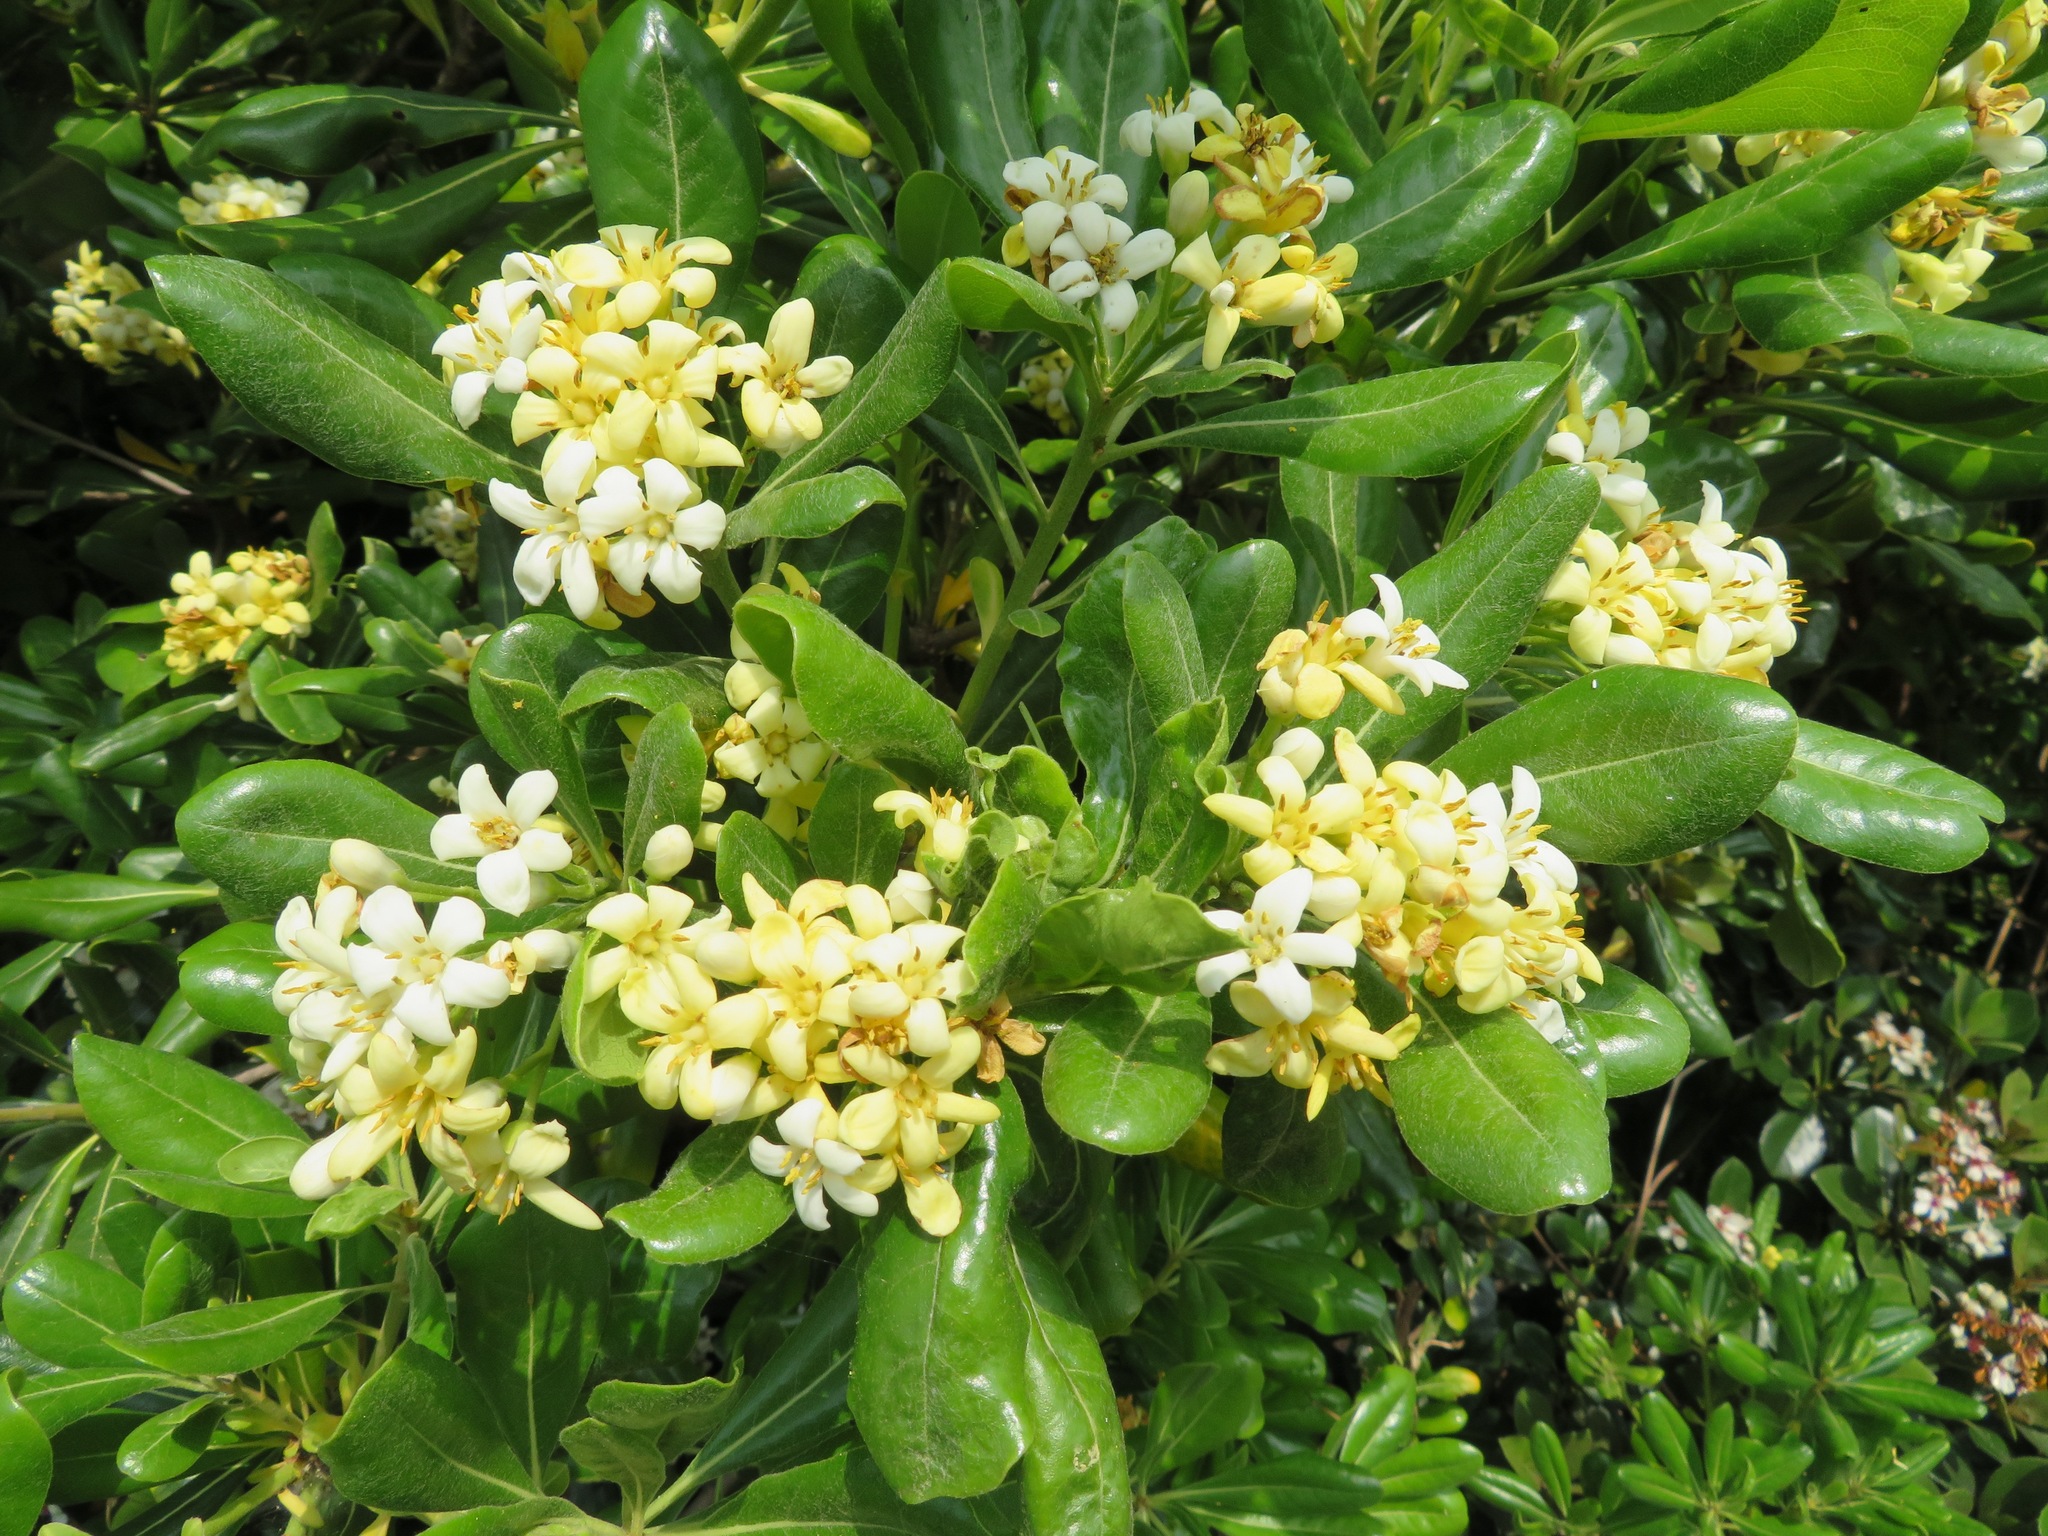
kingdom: Plantae
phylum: Tracheophyta
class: Magnoliopsida
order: Apiales
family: Pittosporaceae
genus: Pittosporum
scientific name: Pittosporum tobira
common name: Japanese cheesewood
